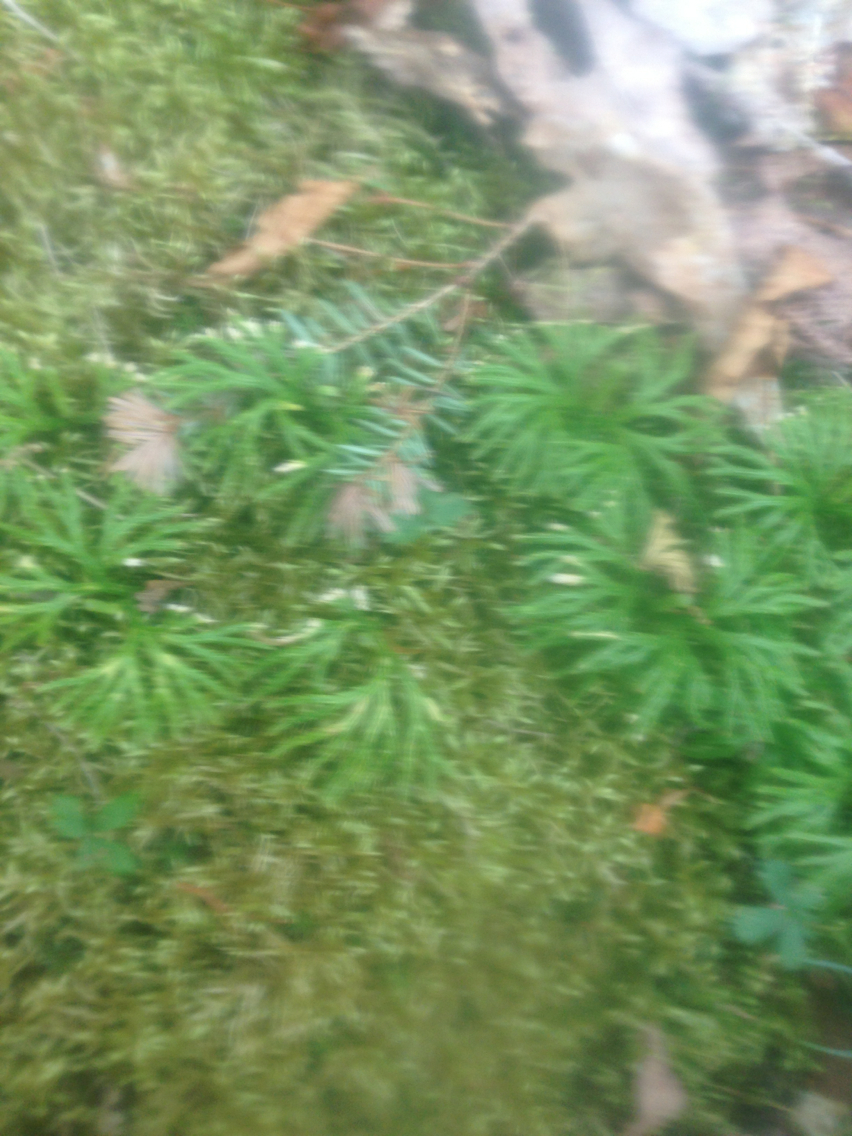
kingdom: Plantae
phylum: Tracheophyta
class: Lycopodiopsida
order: Lycopodiales
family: Lycopodiaceae
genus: Diphasiastrum
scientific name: Diphasiastrum digitatum
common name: Southern running-pine
